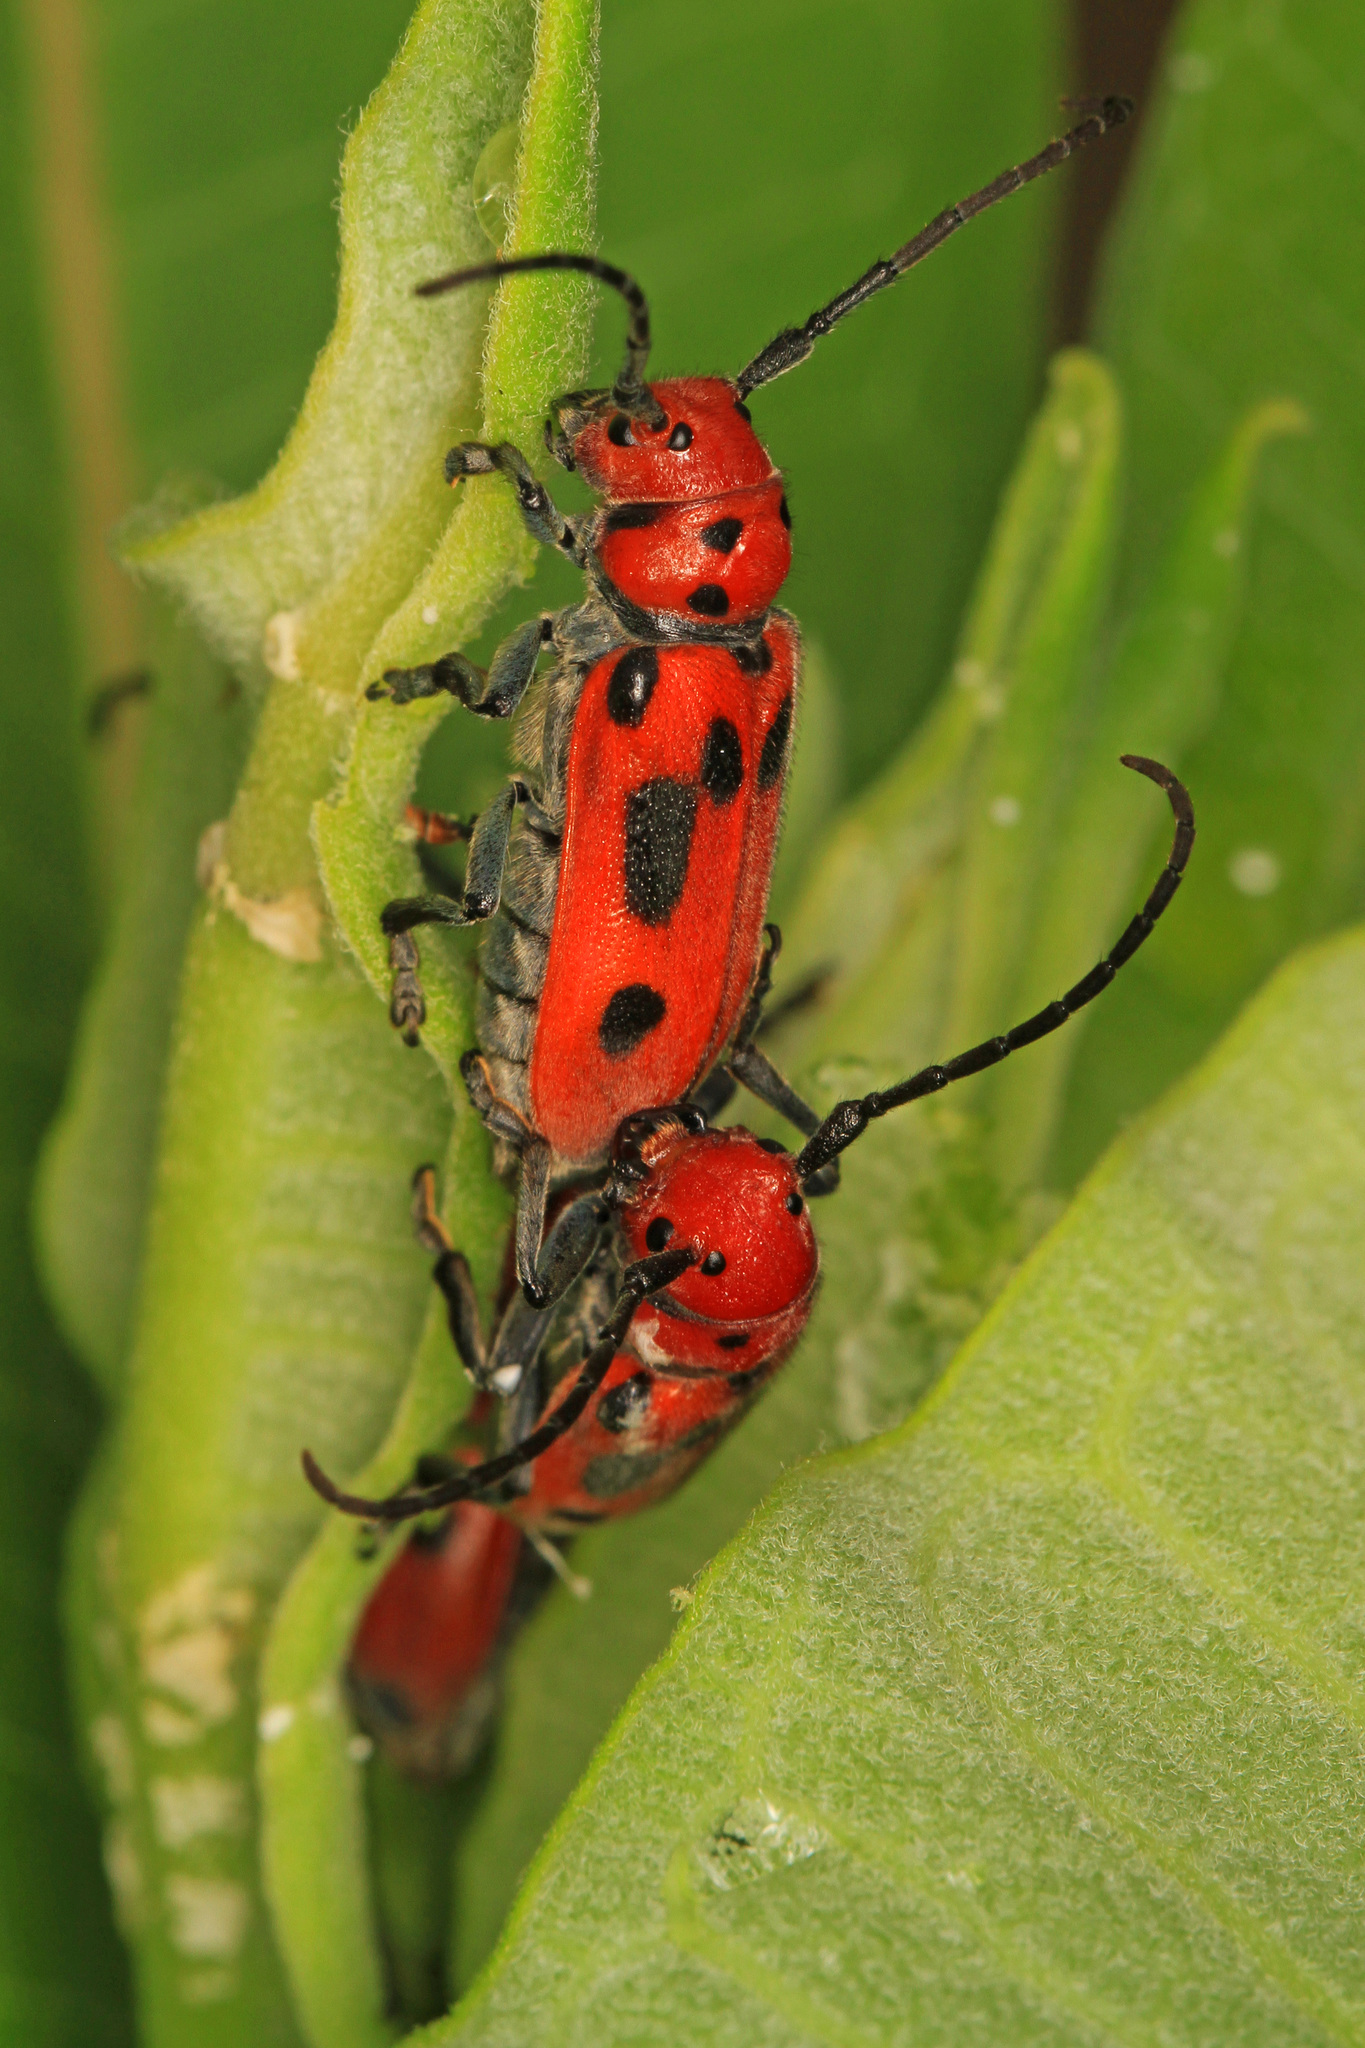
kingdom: Animalia
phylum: Arthropoda
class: Insecta
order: Coleoptera
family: Cerambycidae
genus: Tetraopes
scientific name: Tetraopes tetrophthalmus
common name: Red milkweed beetle
